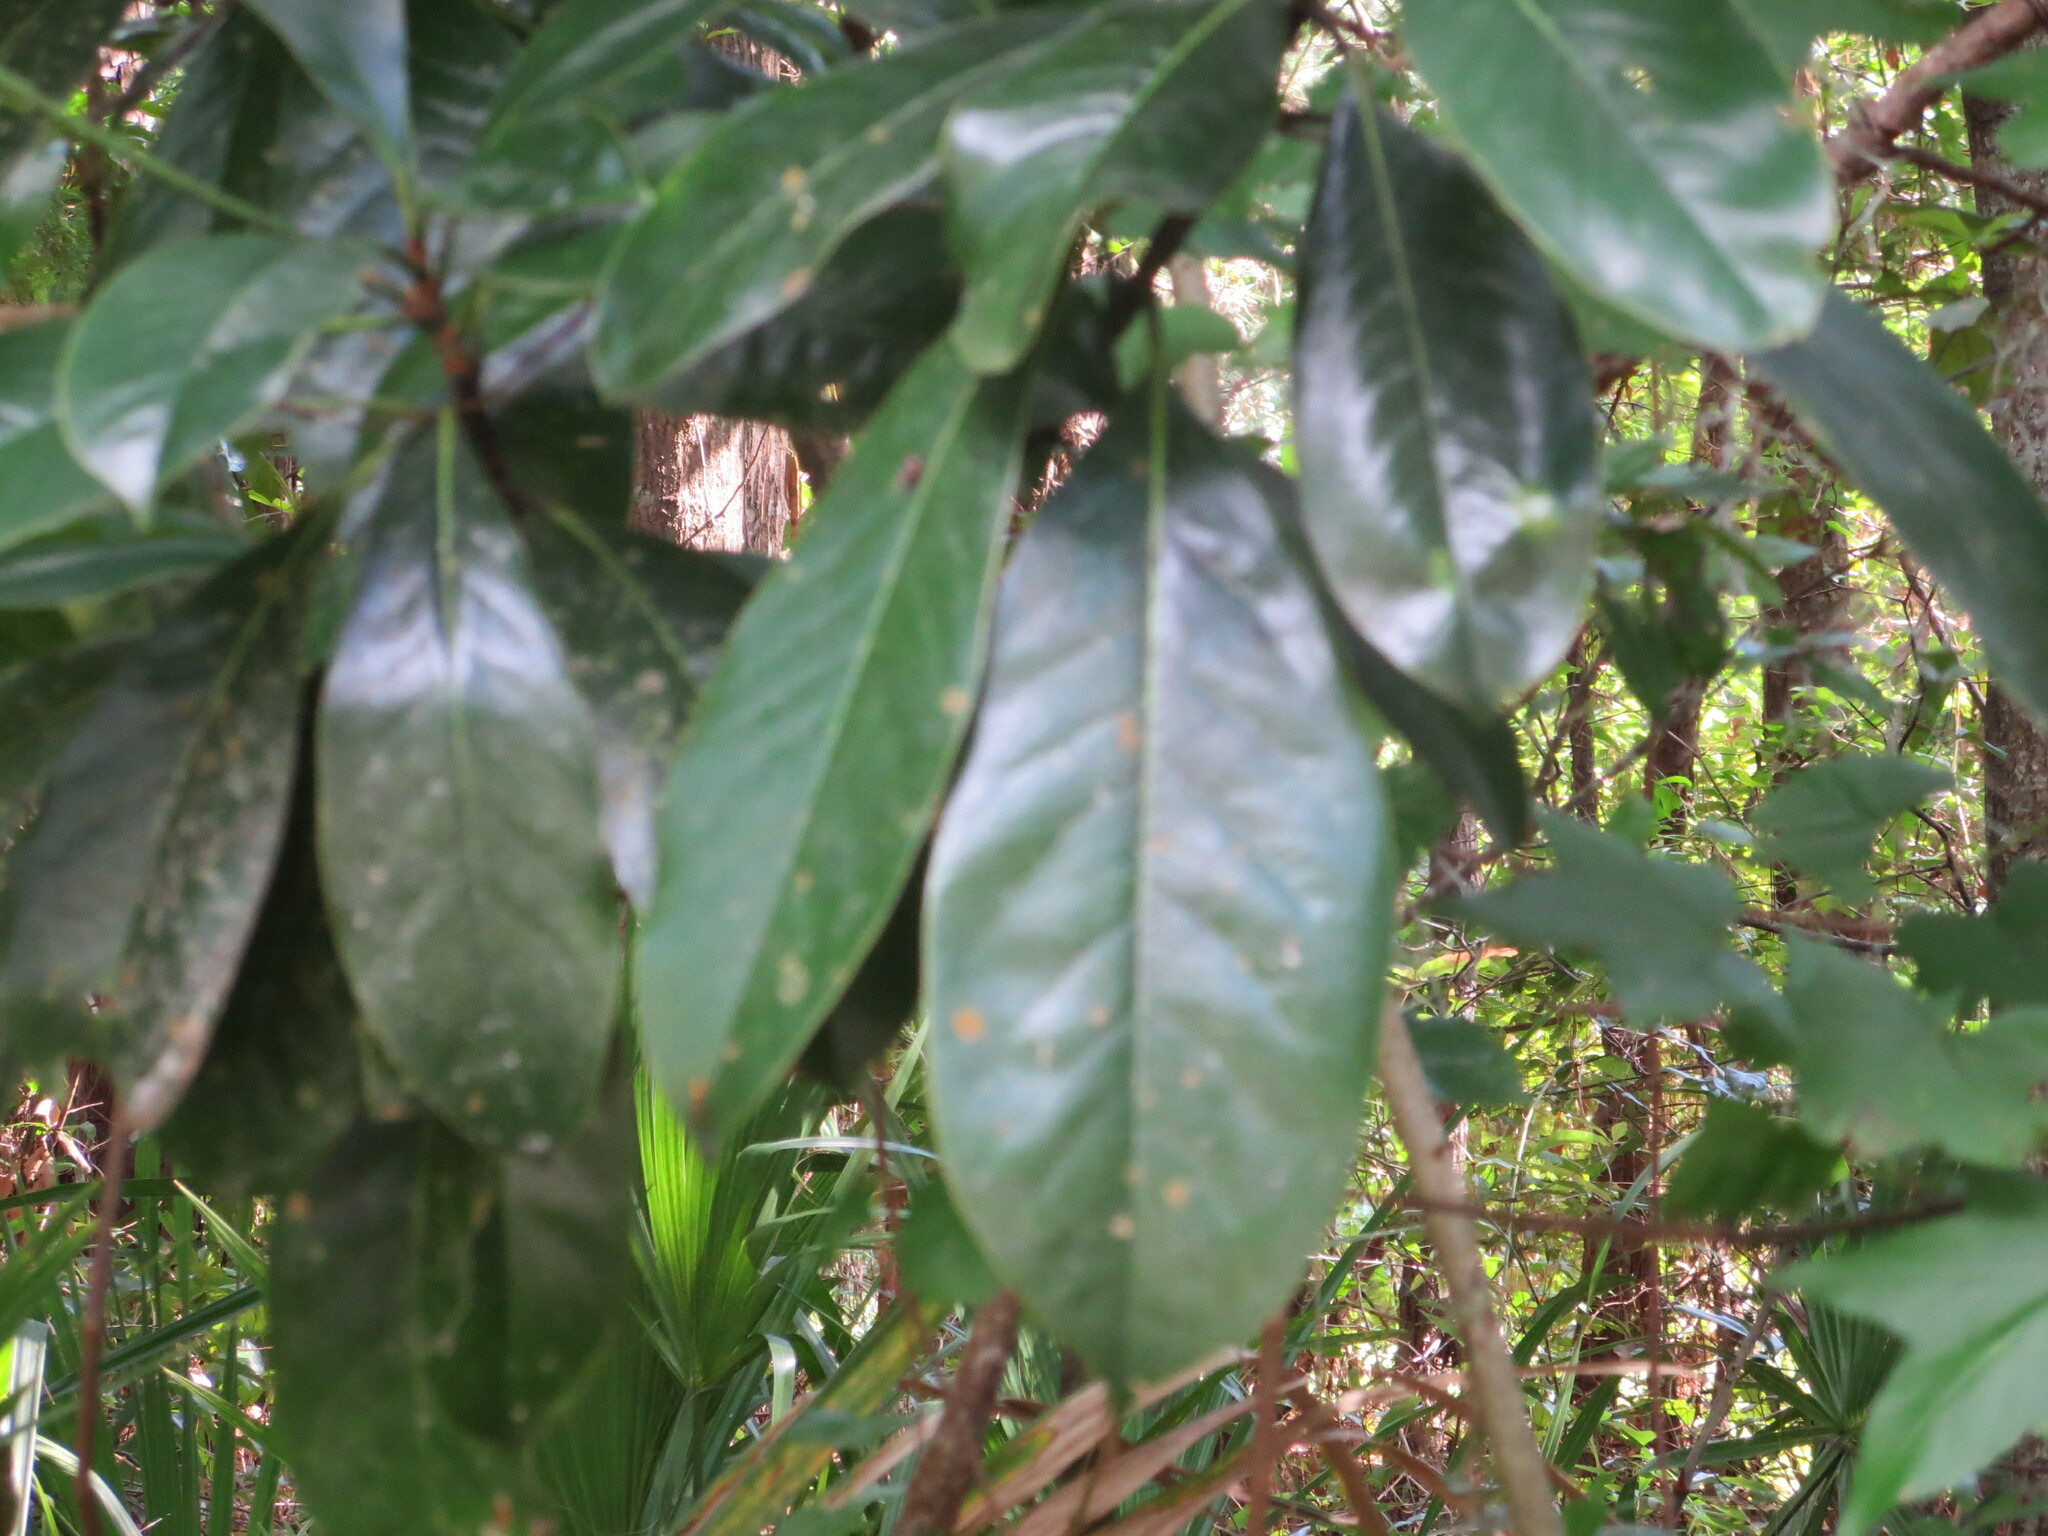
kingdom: Plantae
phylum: Tracheophyta
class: Magnoliopsida
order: Magnoliales
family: Magnoliaceae
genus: Magnolia
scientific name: Magnolia grandiflora
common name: Southern magnolia
